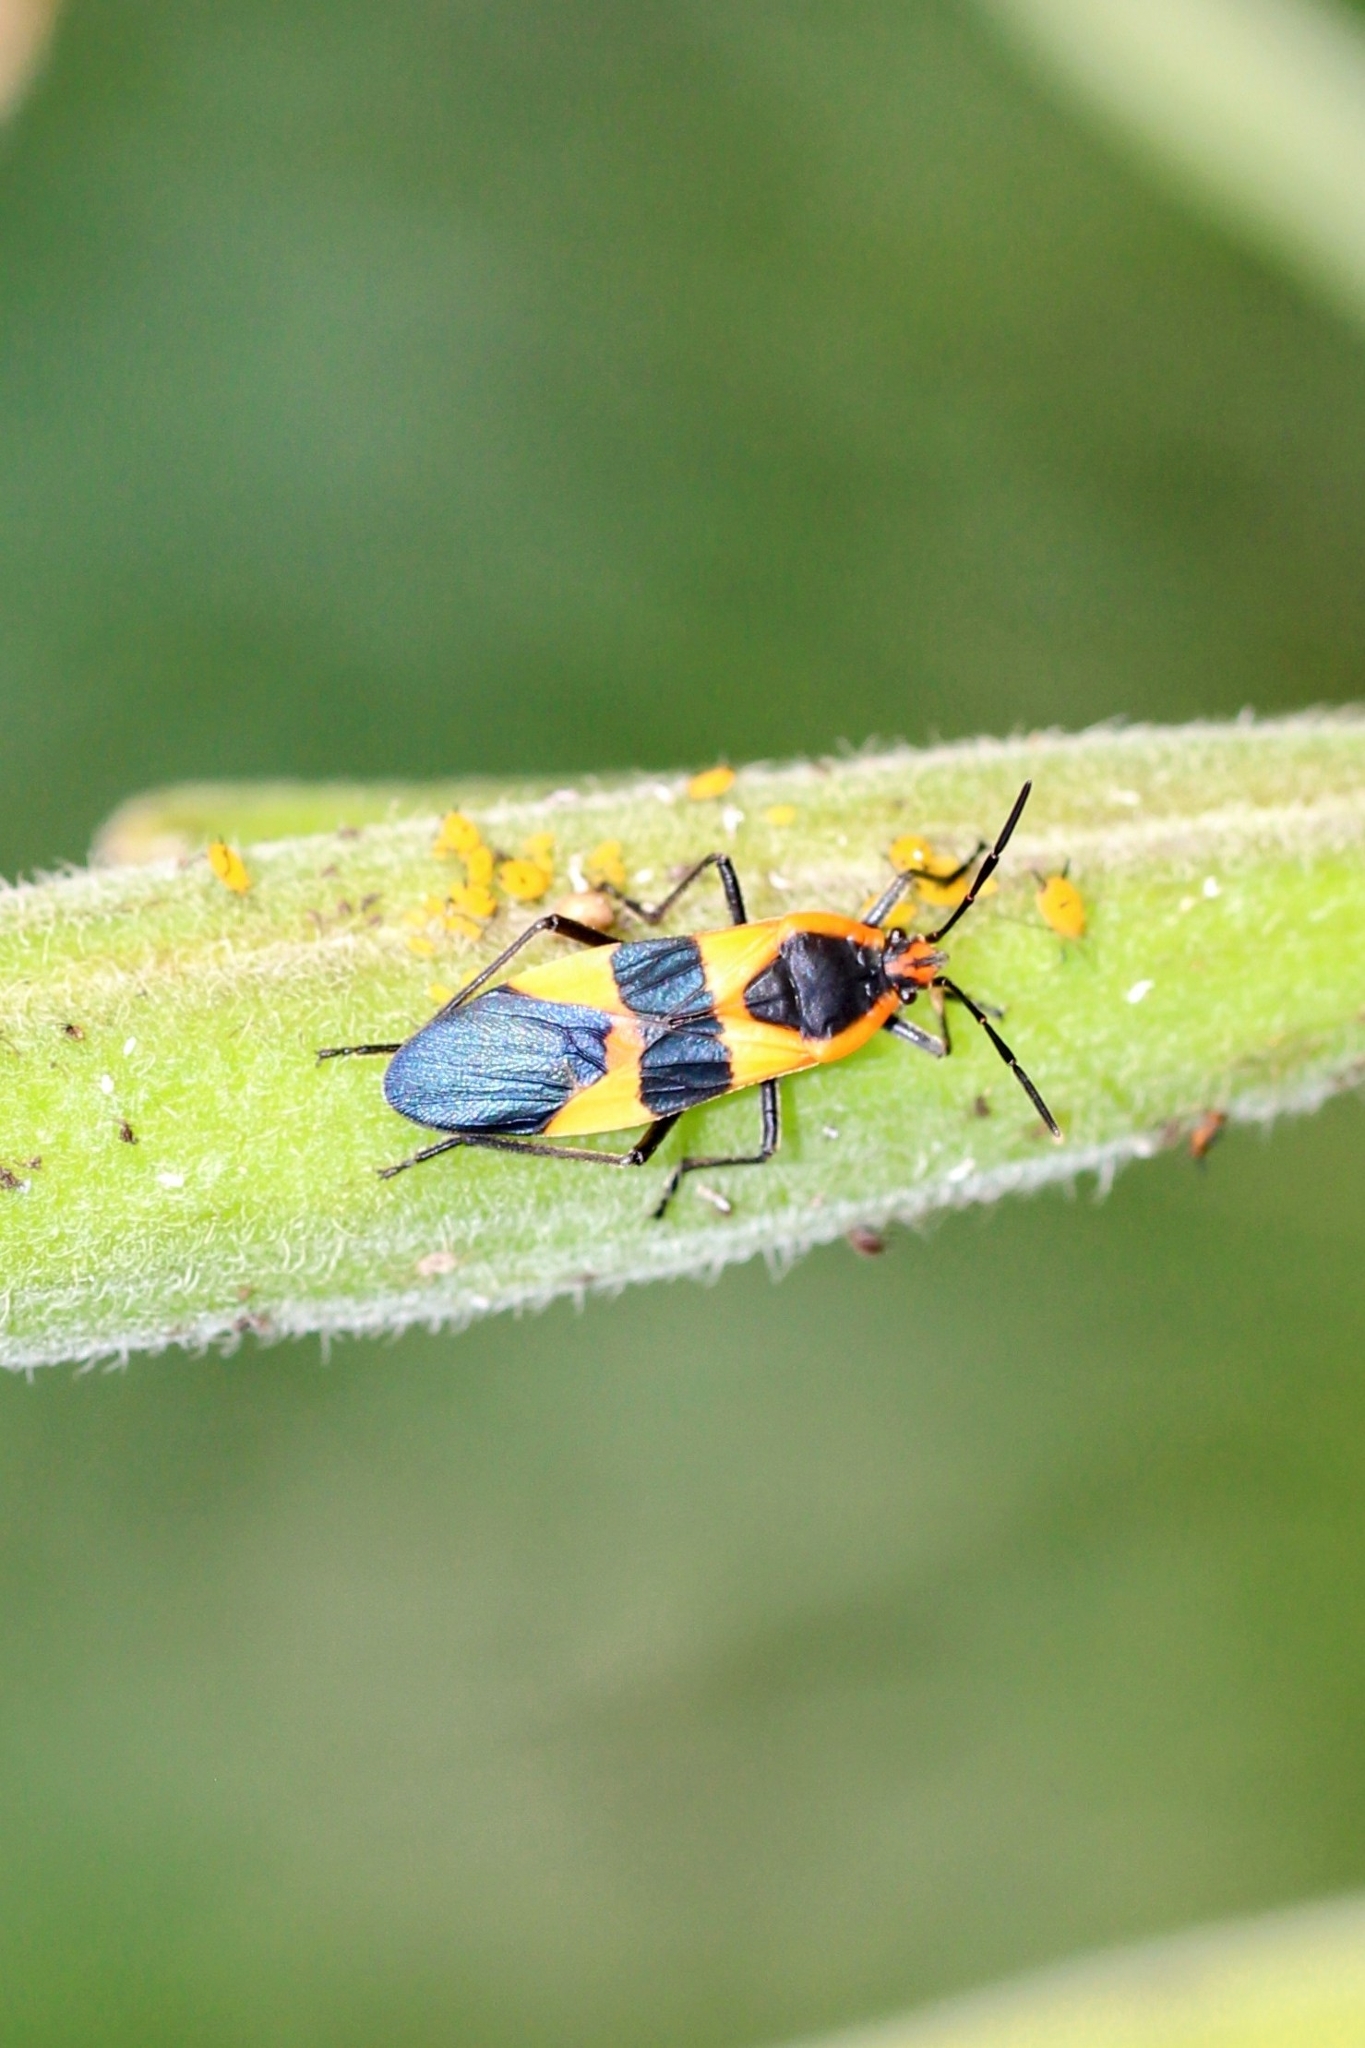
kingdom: Animalia
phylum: Arthropoda
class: Insecta
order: Hemiptera
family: Lygaeidae
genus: Oncopeltus
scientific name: Oncopeltus fasciatus
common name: Large milkweed bug
